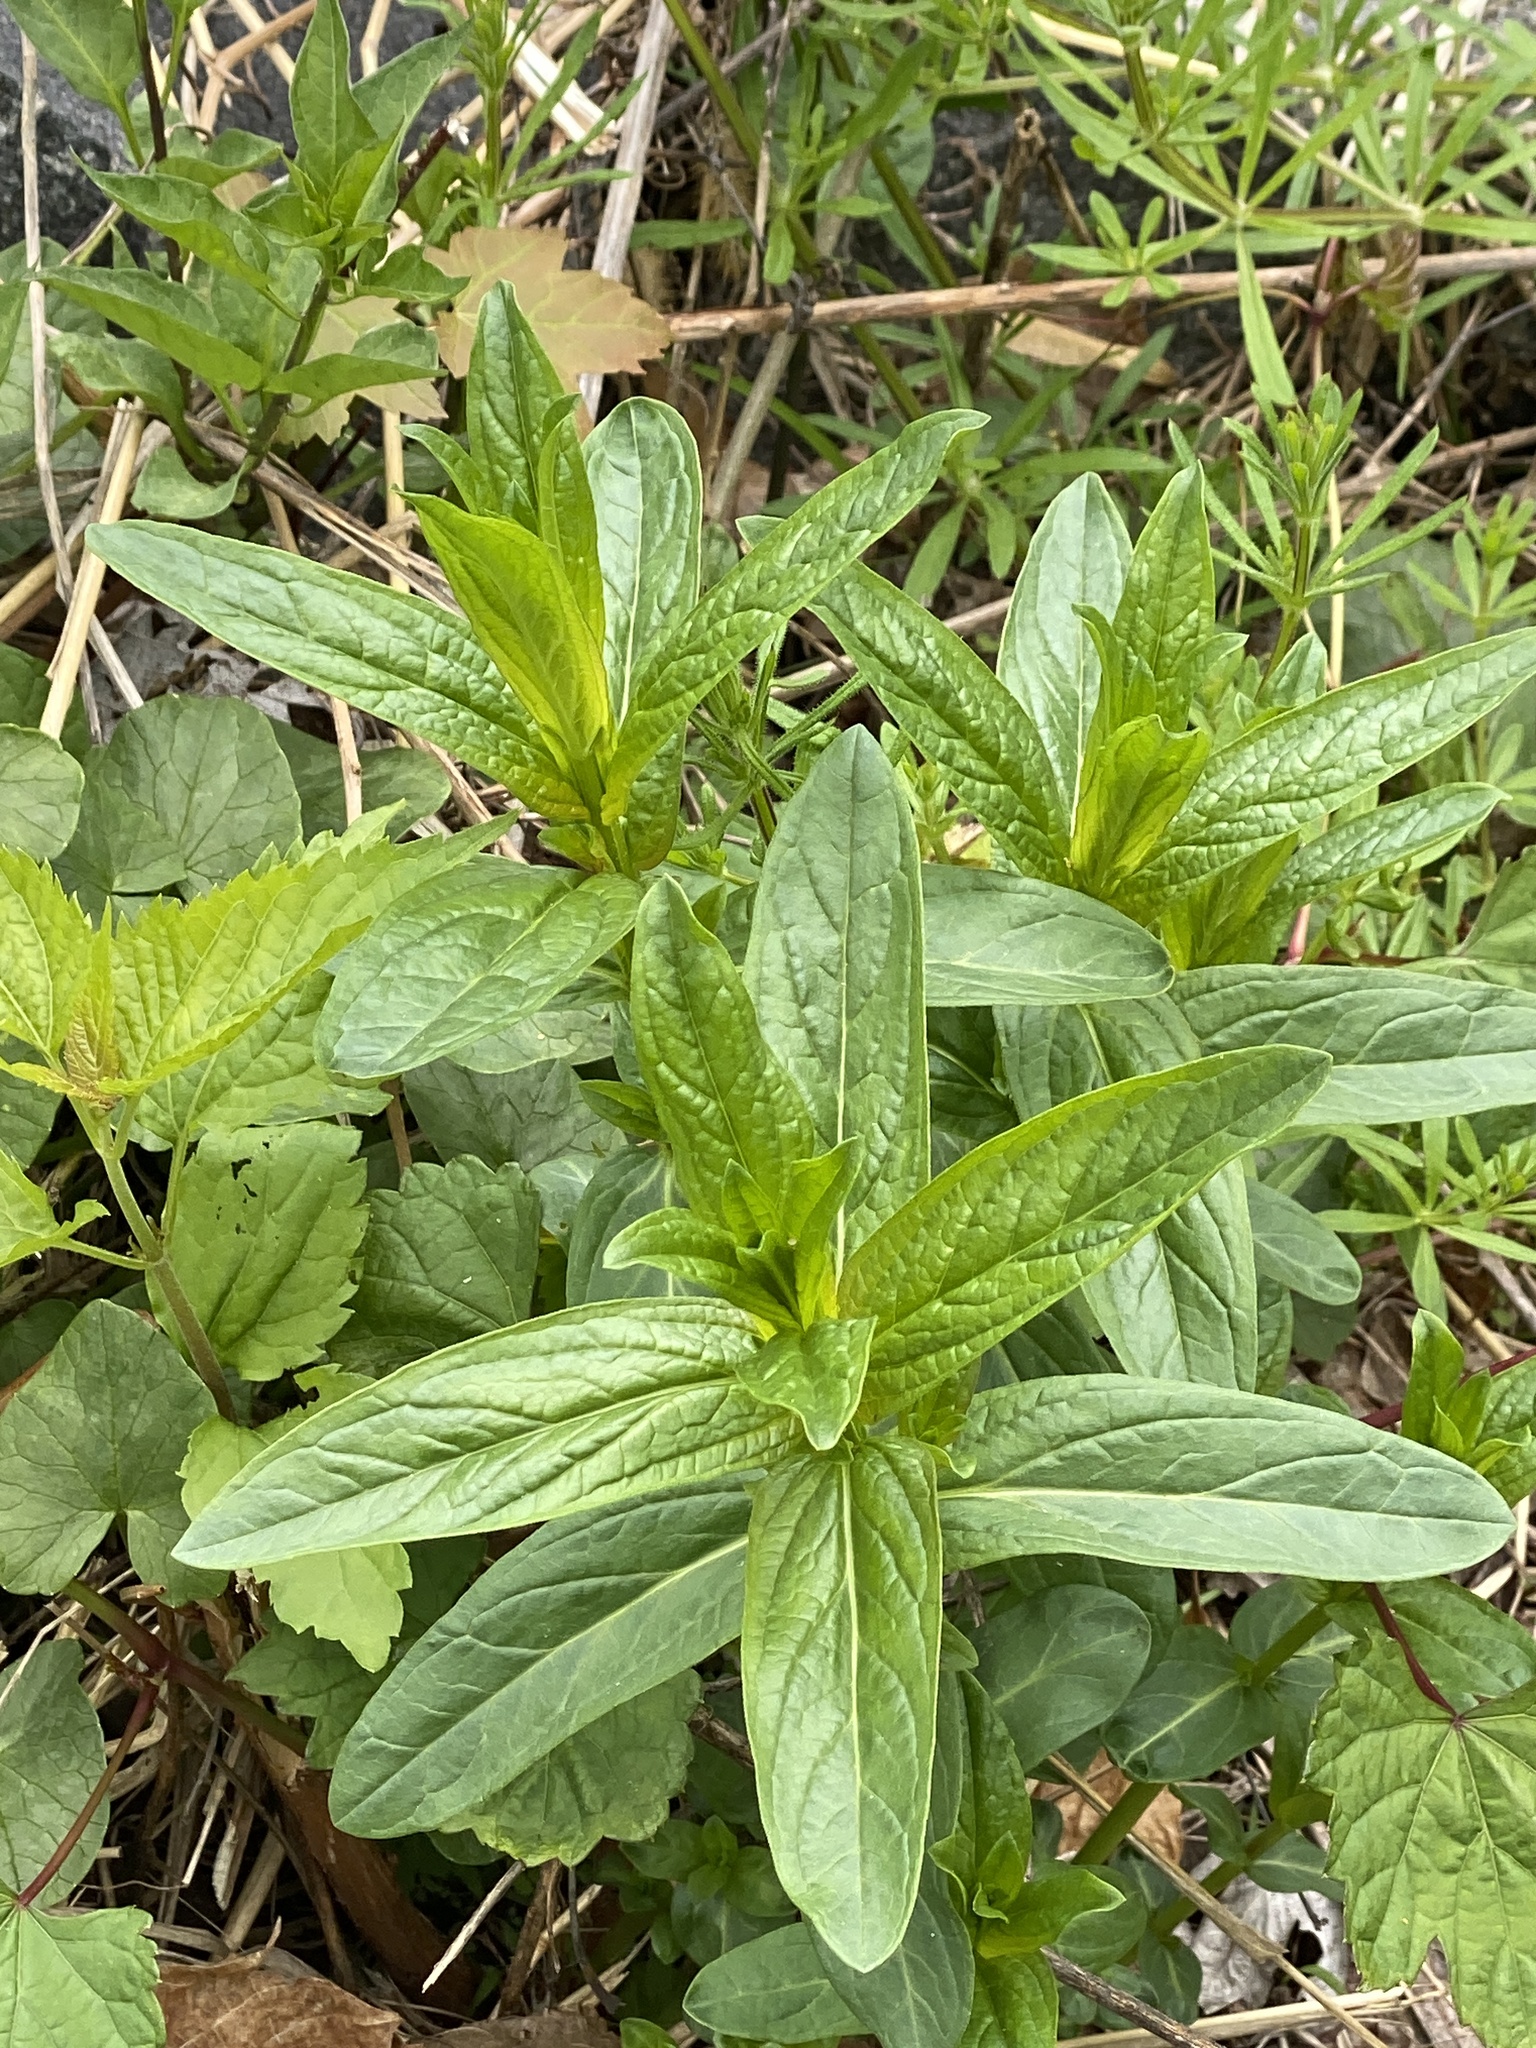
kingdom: Plantae
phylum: Tracheophyta
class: Magnoliopsida
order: Myrtales
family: Lythraceae
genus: Lythrum
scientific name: Lythrum salicaria
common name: Purple loosestrife
